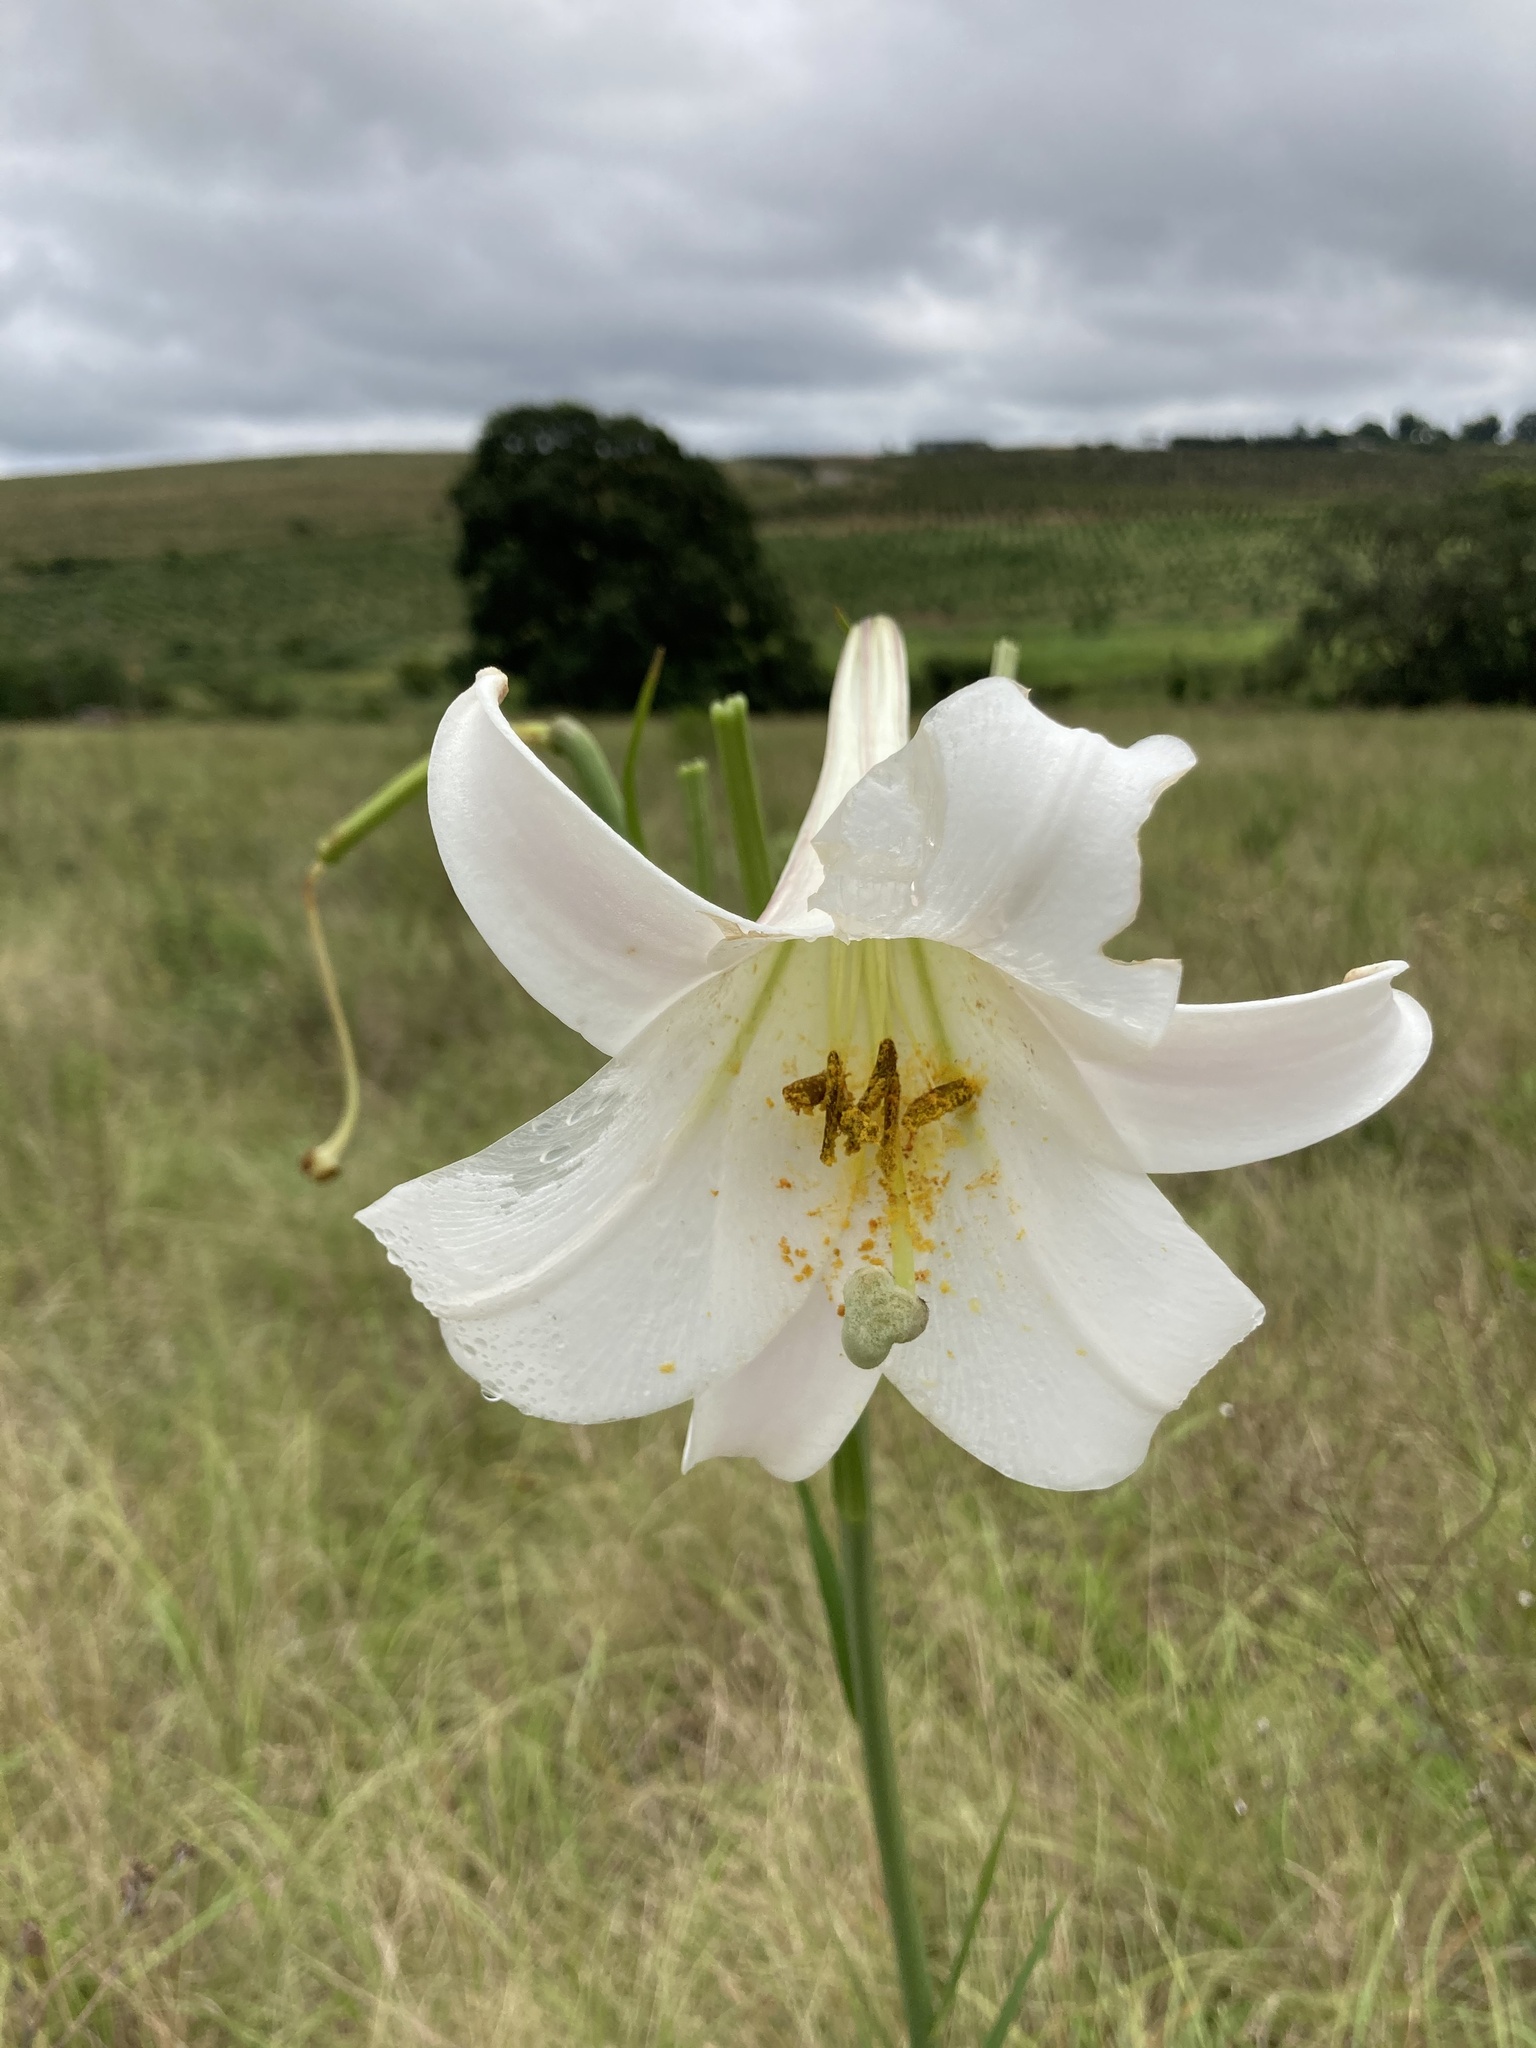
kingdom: Plantae
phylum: Tracheophyta
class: Liliopsida
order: Liliales
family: Liliaceae
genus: Lilium
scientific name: Lilium formosanum
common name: Formosa lily
